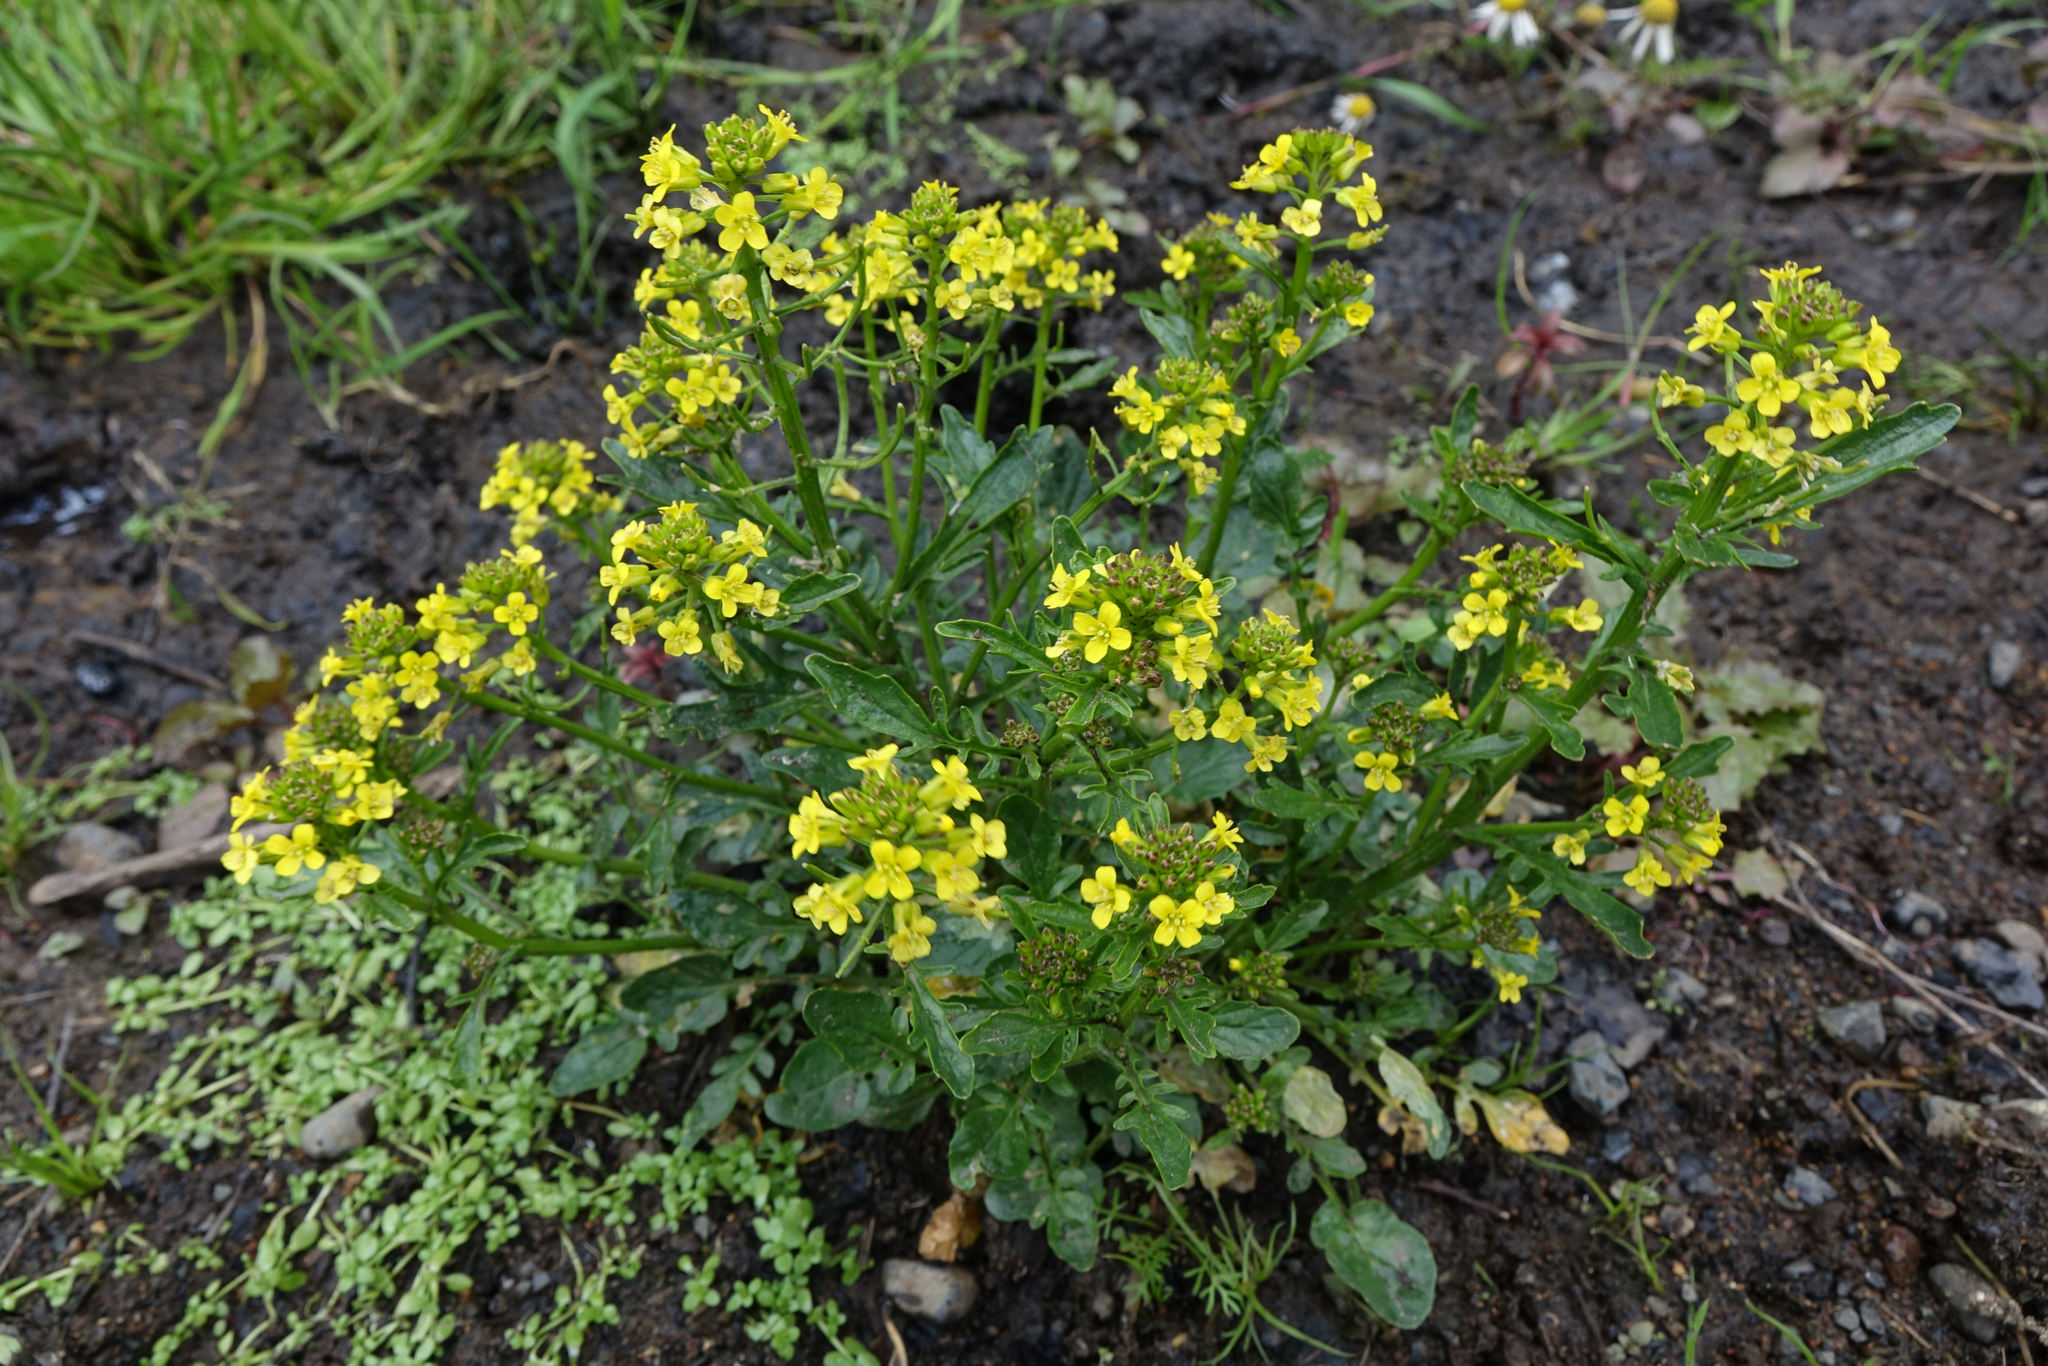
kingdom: Plantae
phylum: Tracheophyta
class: Magnoliopsida
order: Brassicales
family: Brassicaceae
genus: Barbarea
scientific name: Barbarea intermedia
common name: Medium-flowered winter-cress
